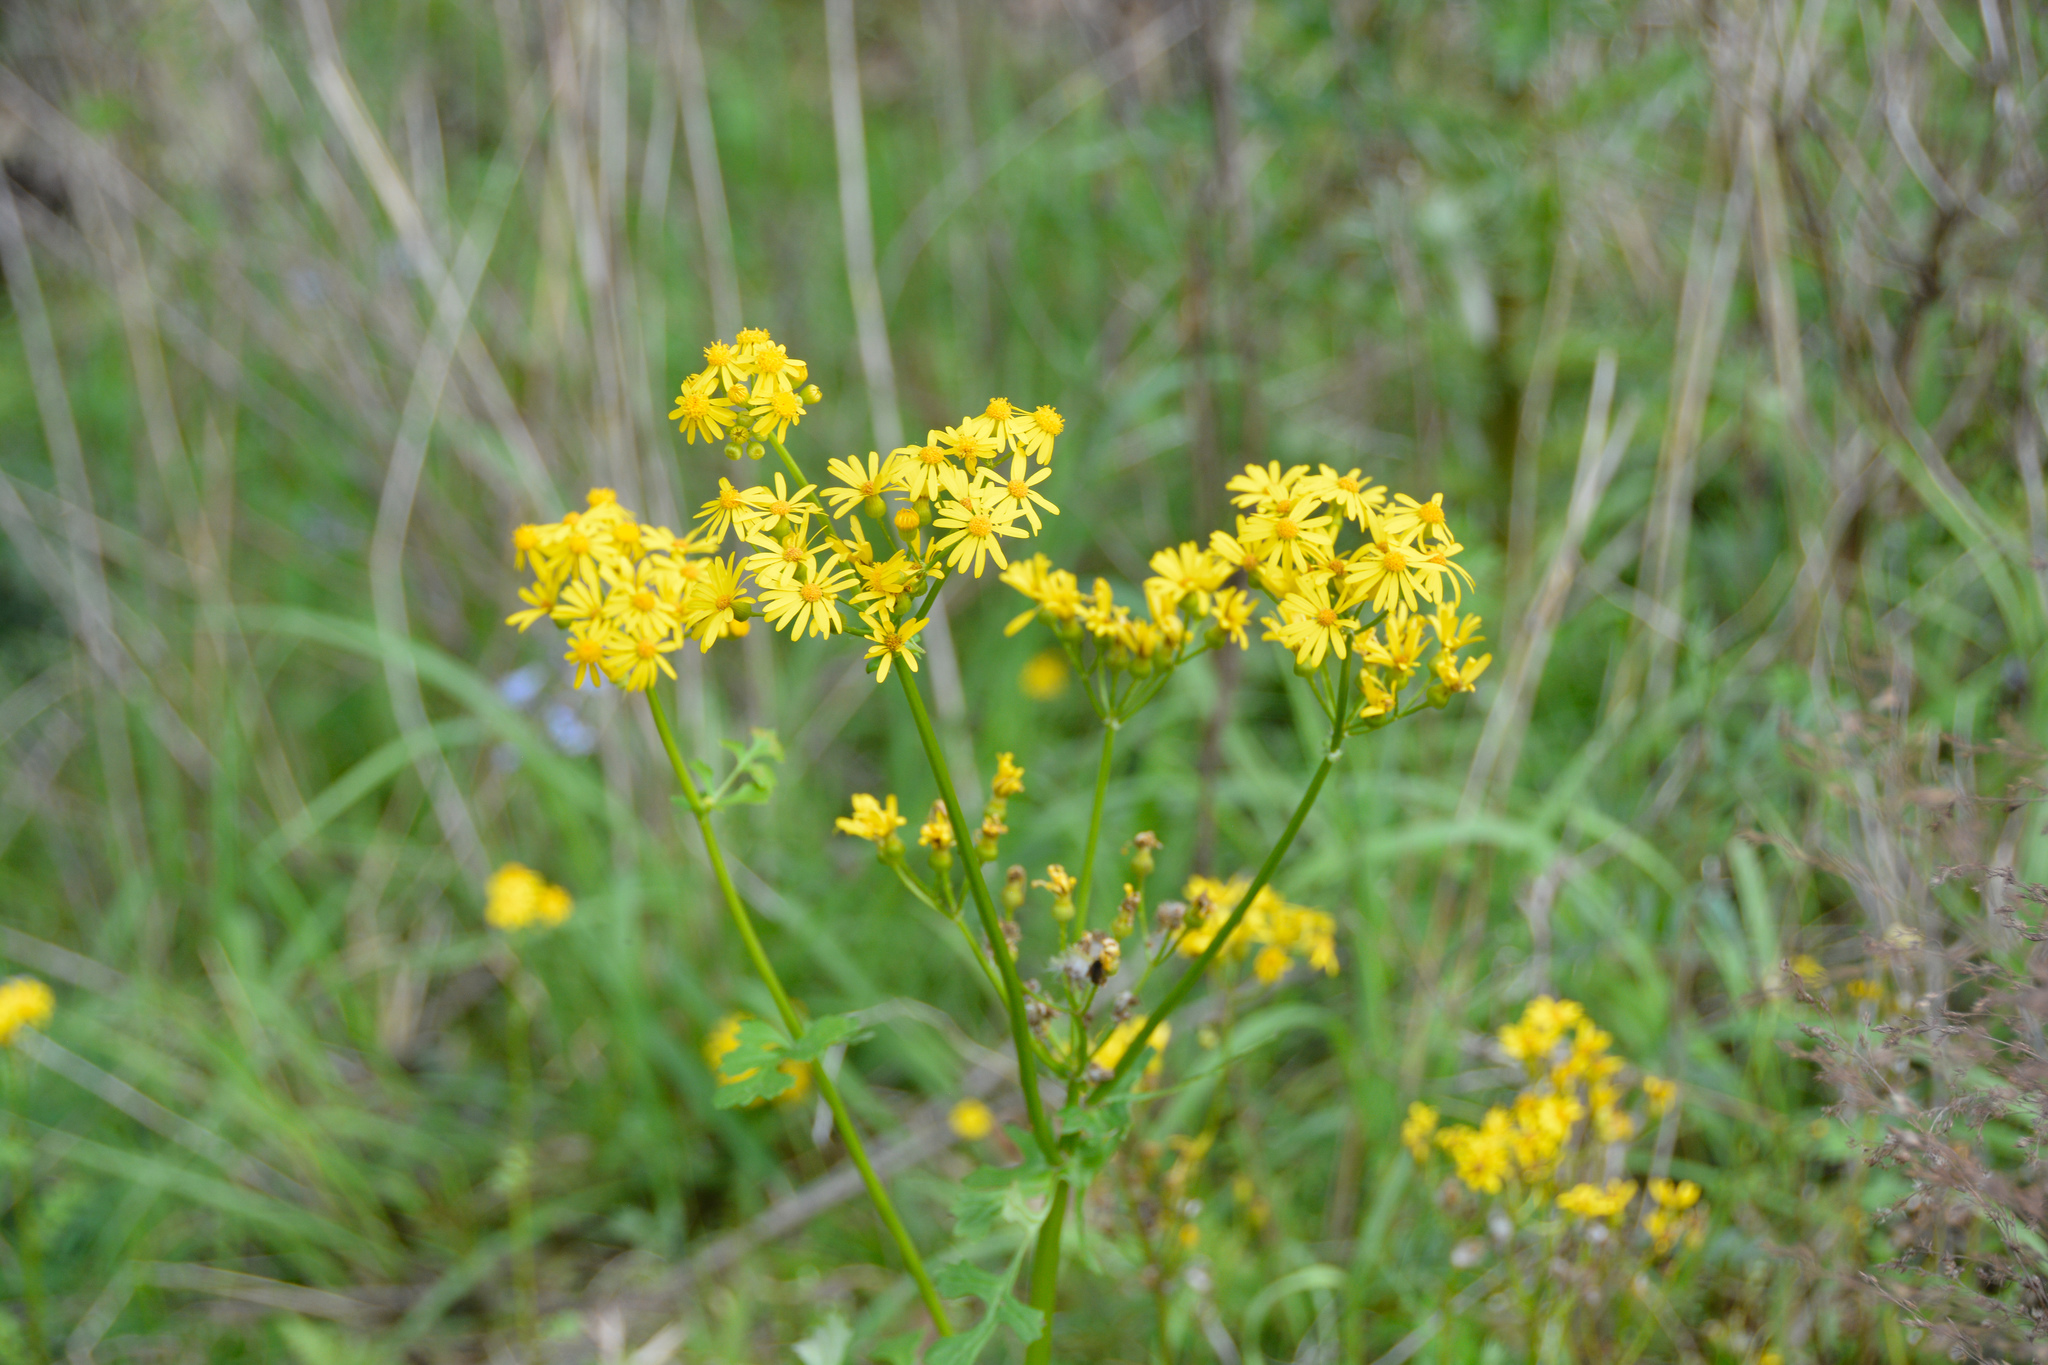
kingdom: Plantae
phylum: Tracheophyta
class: Magnoliopsida
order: Asterales
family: Asteraceae
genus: Packera
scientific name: Packera glabella
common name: Butterweed
